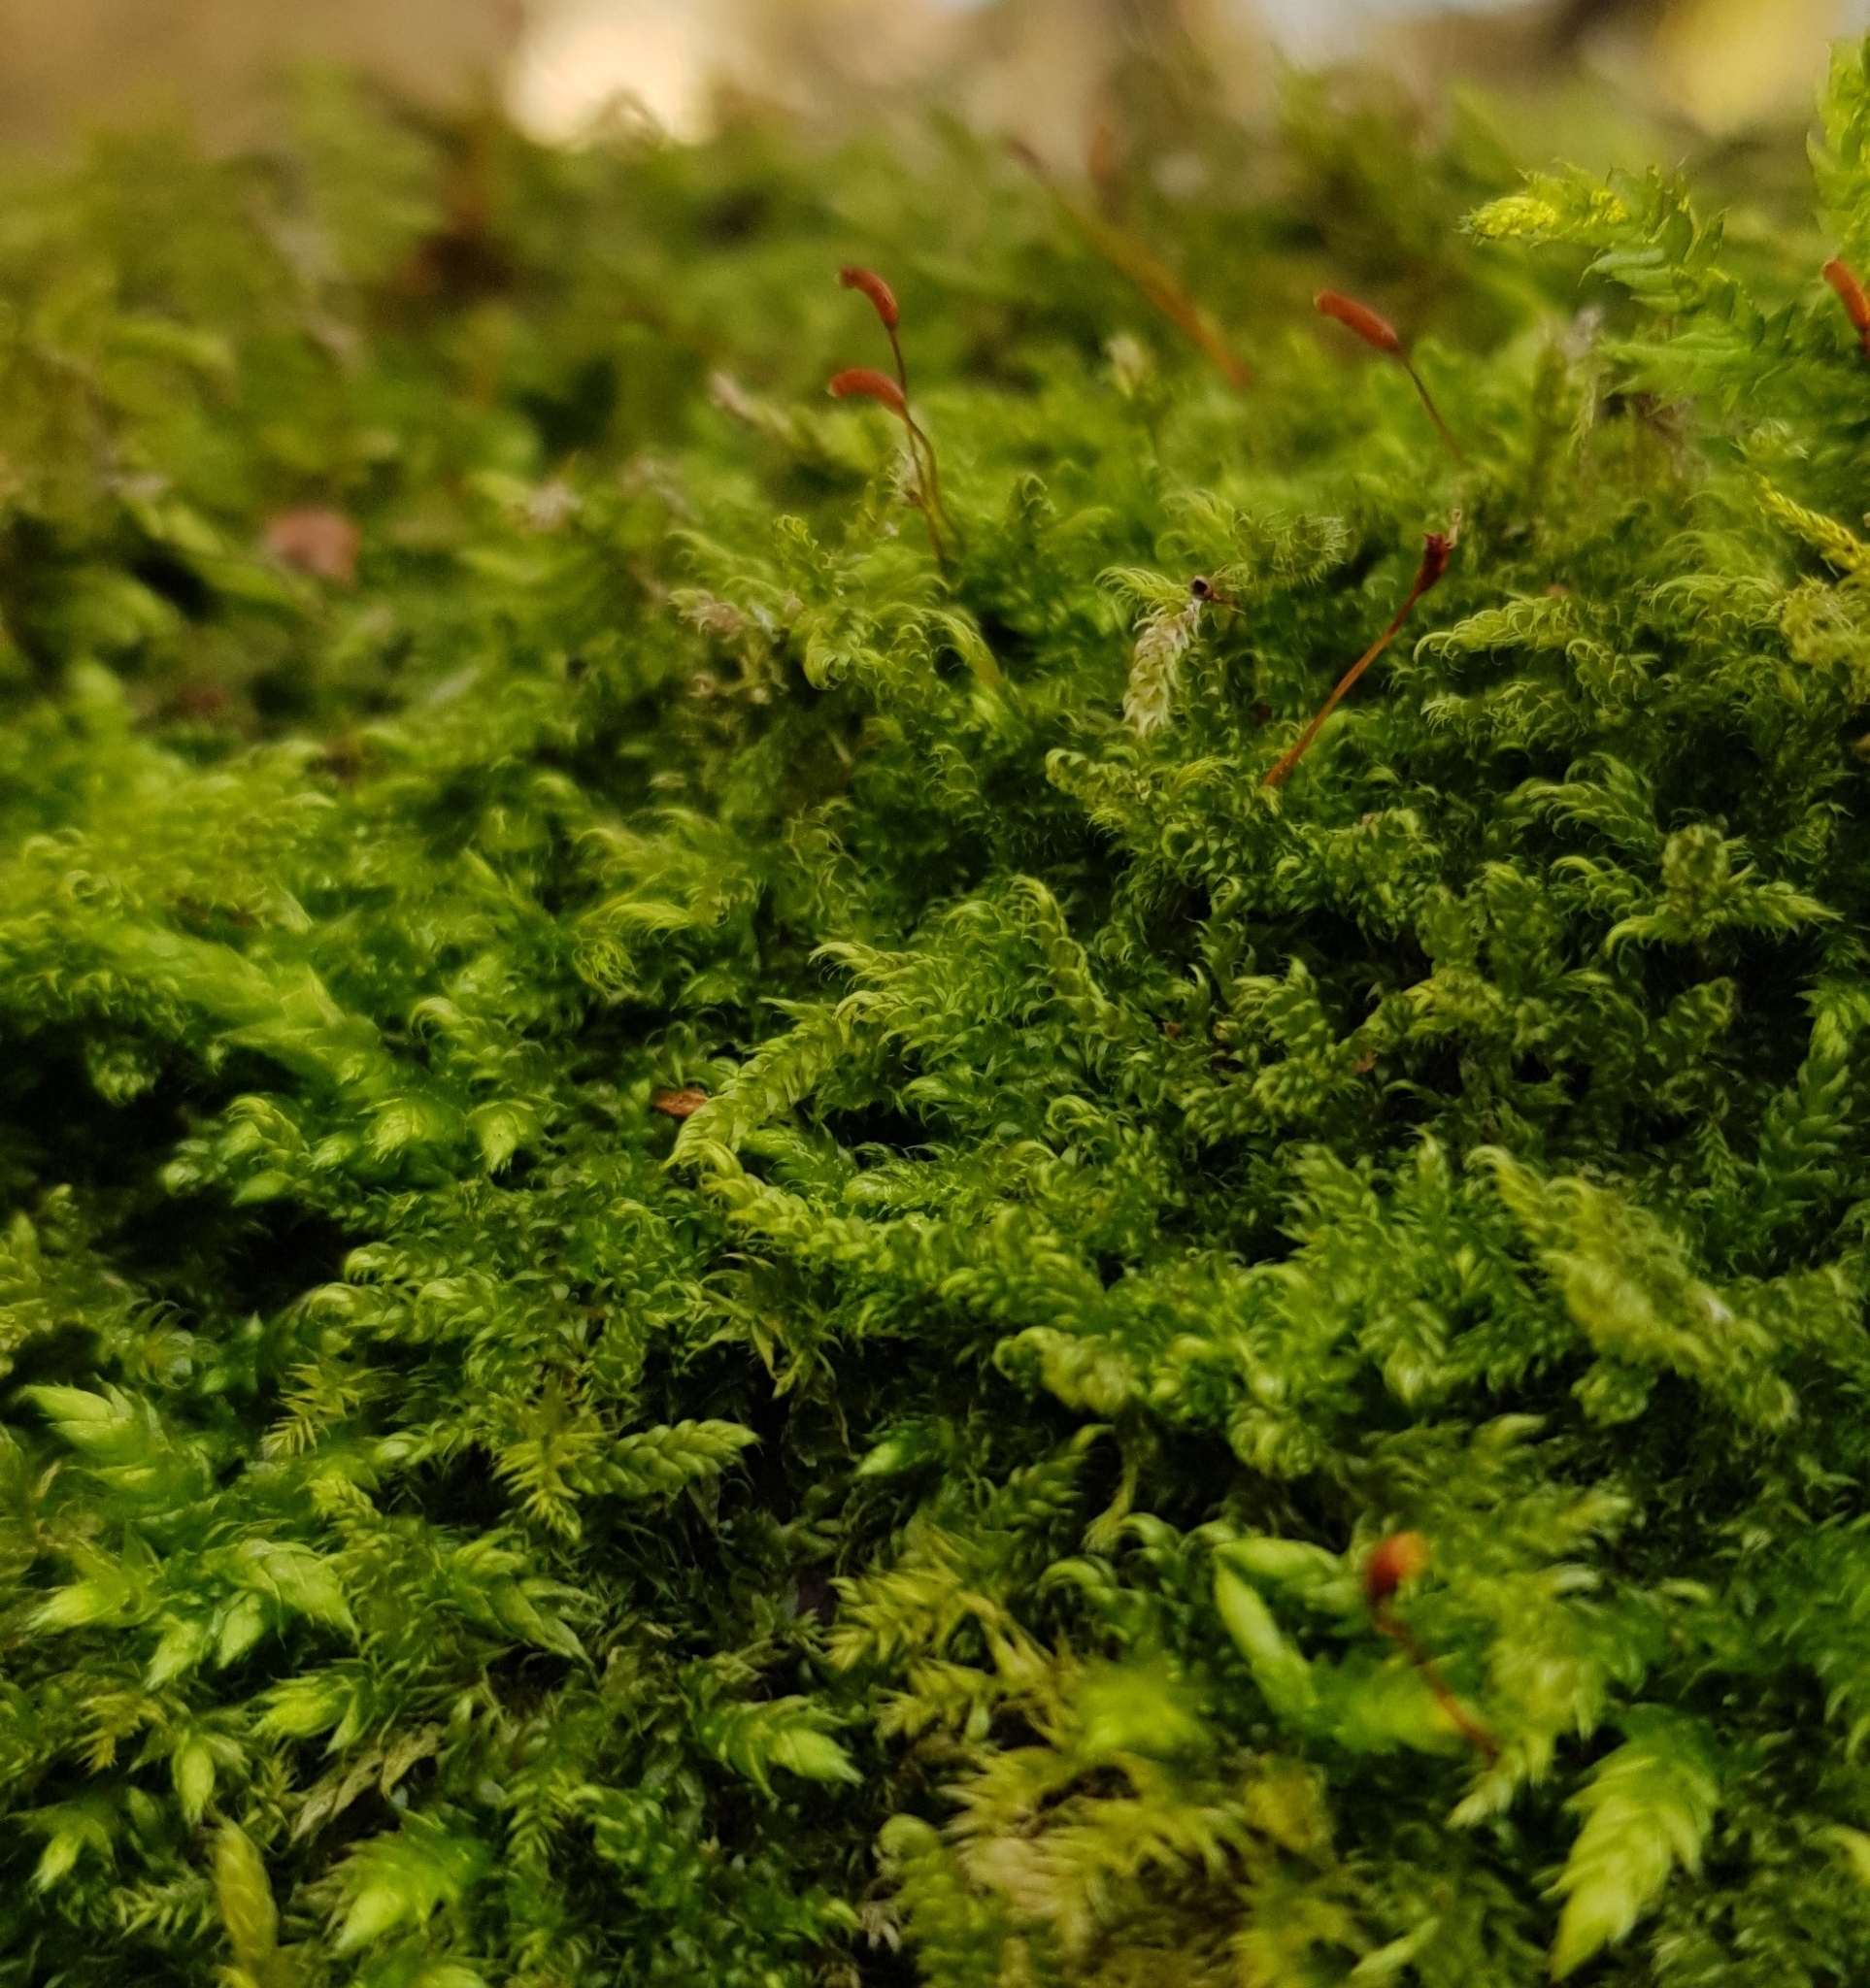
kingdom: Plantae
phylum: Bryophyta
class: Bryopsida
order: Hypnales
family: Hypnaceae
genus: Hypnum
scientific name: Hypnum cupressiforme
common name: Cypress-leaved plait-moss
